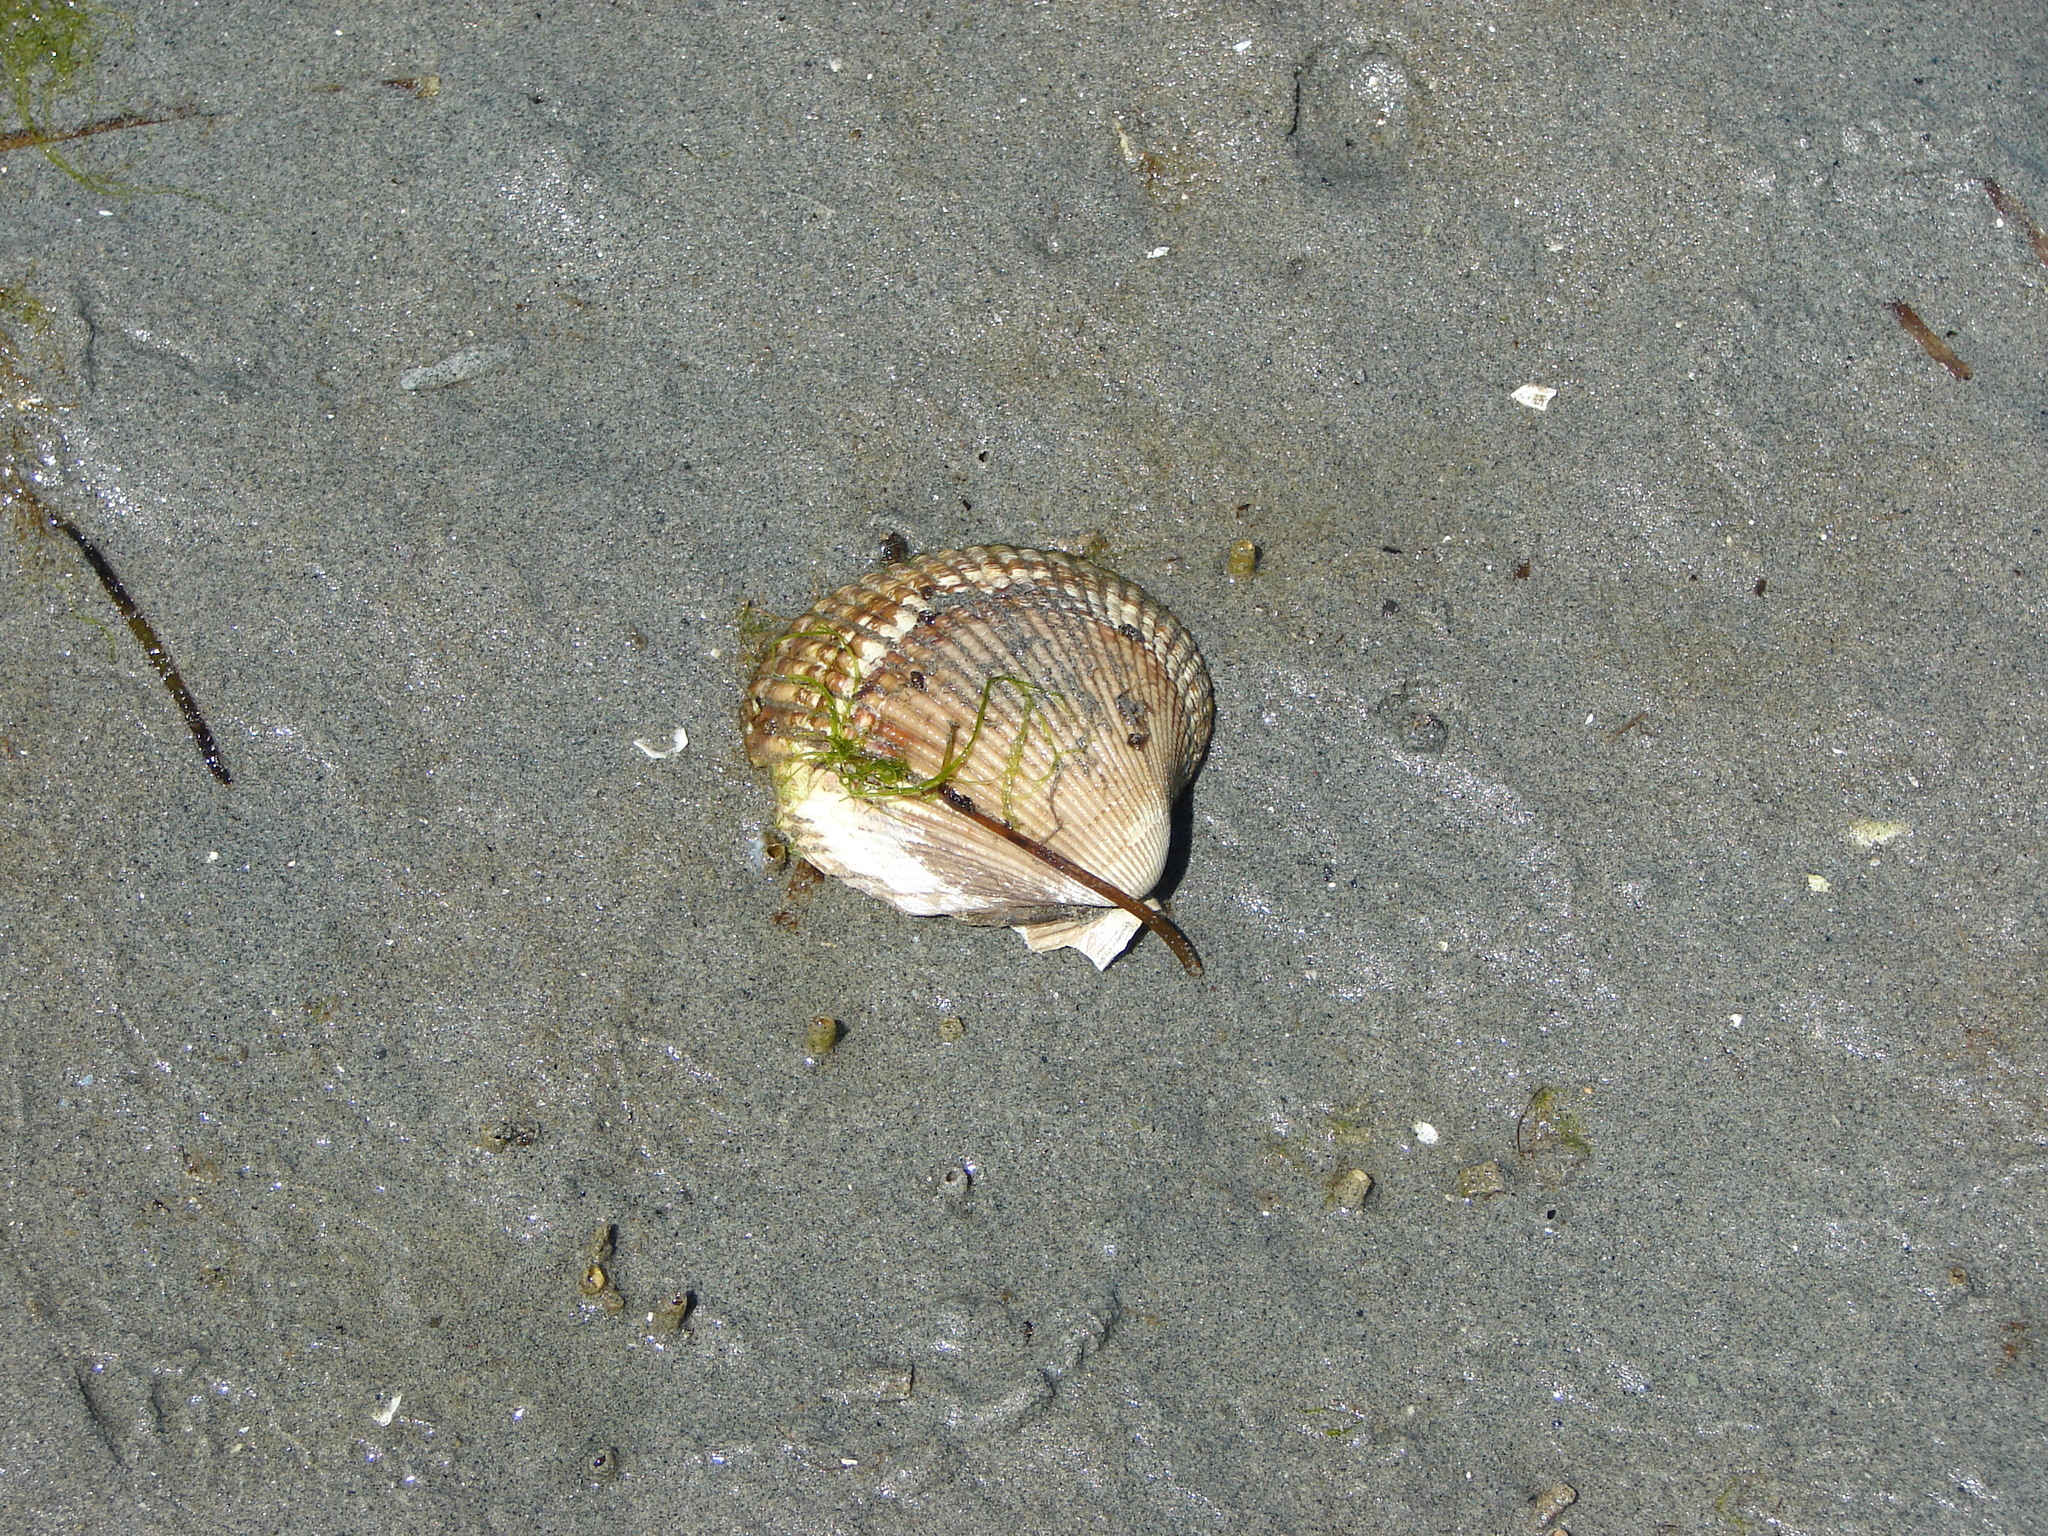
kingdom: Animalia
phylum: Mollusca
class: Bivalvia
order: Cardiida
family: Cardiidae
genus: Clinocardium
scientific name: Clinocardium nuttallii
